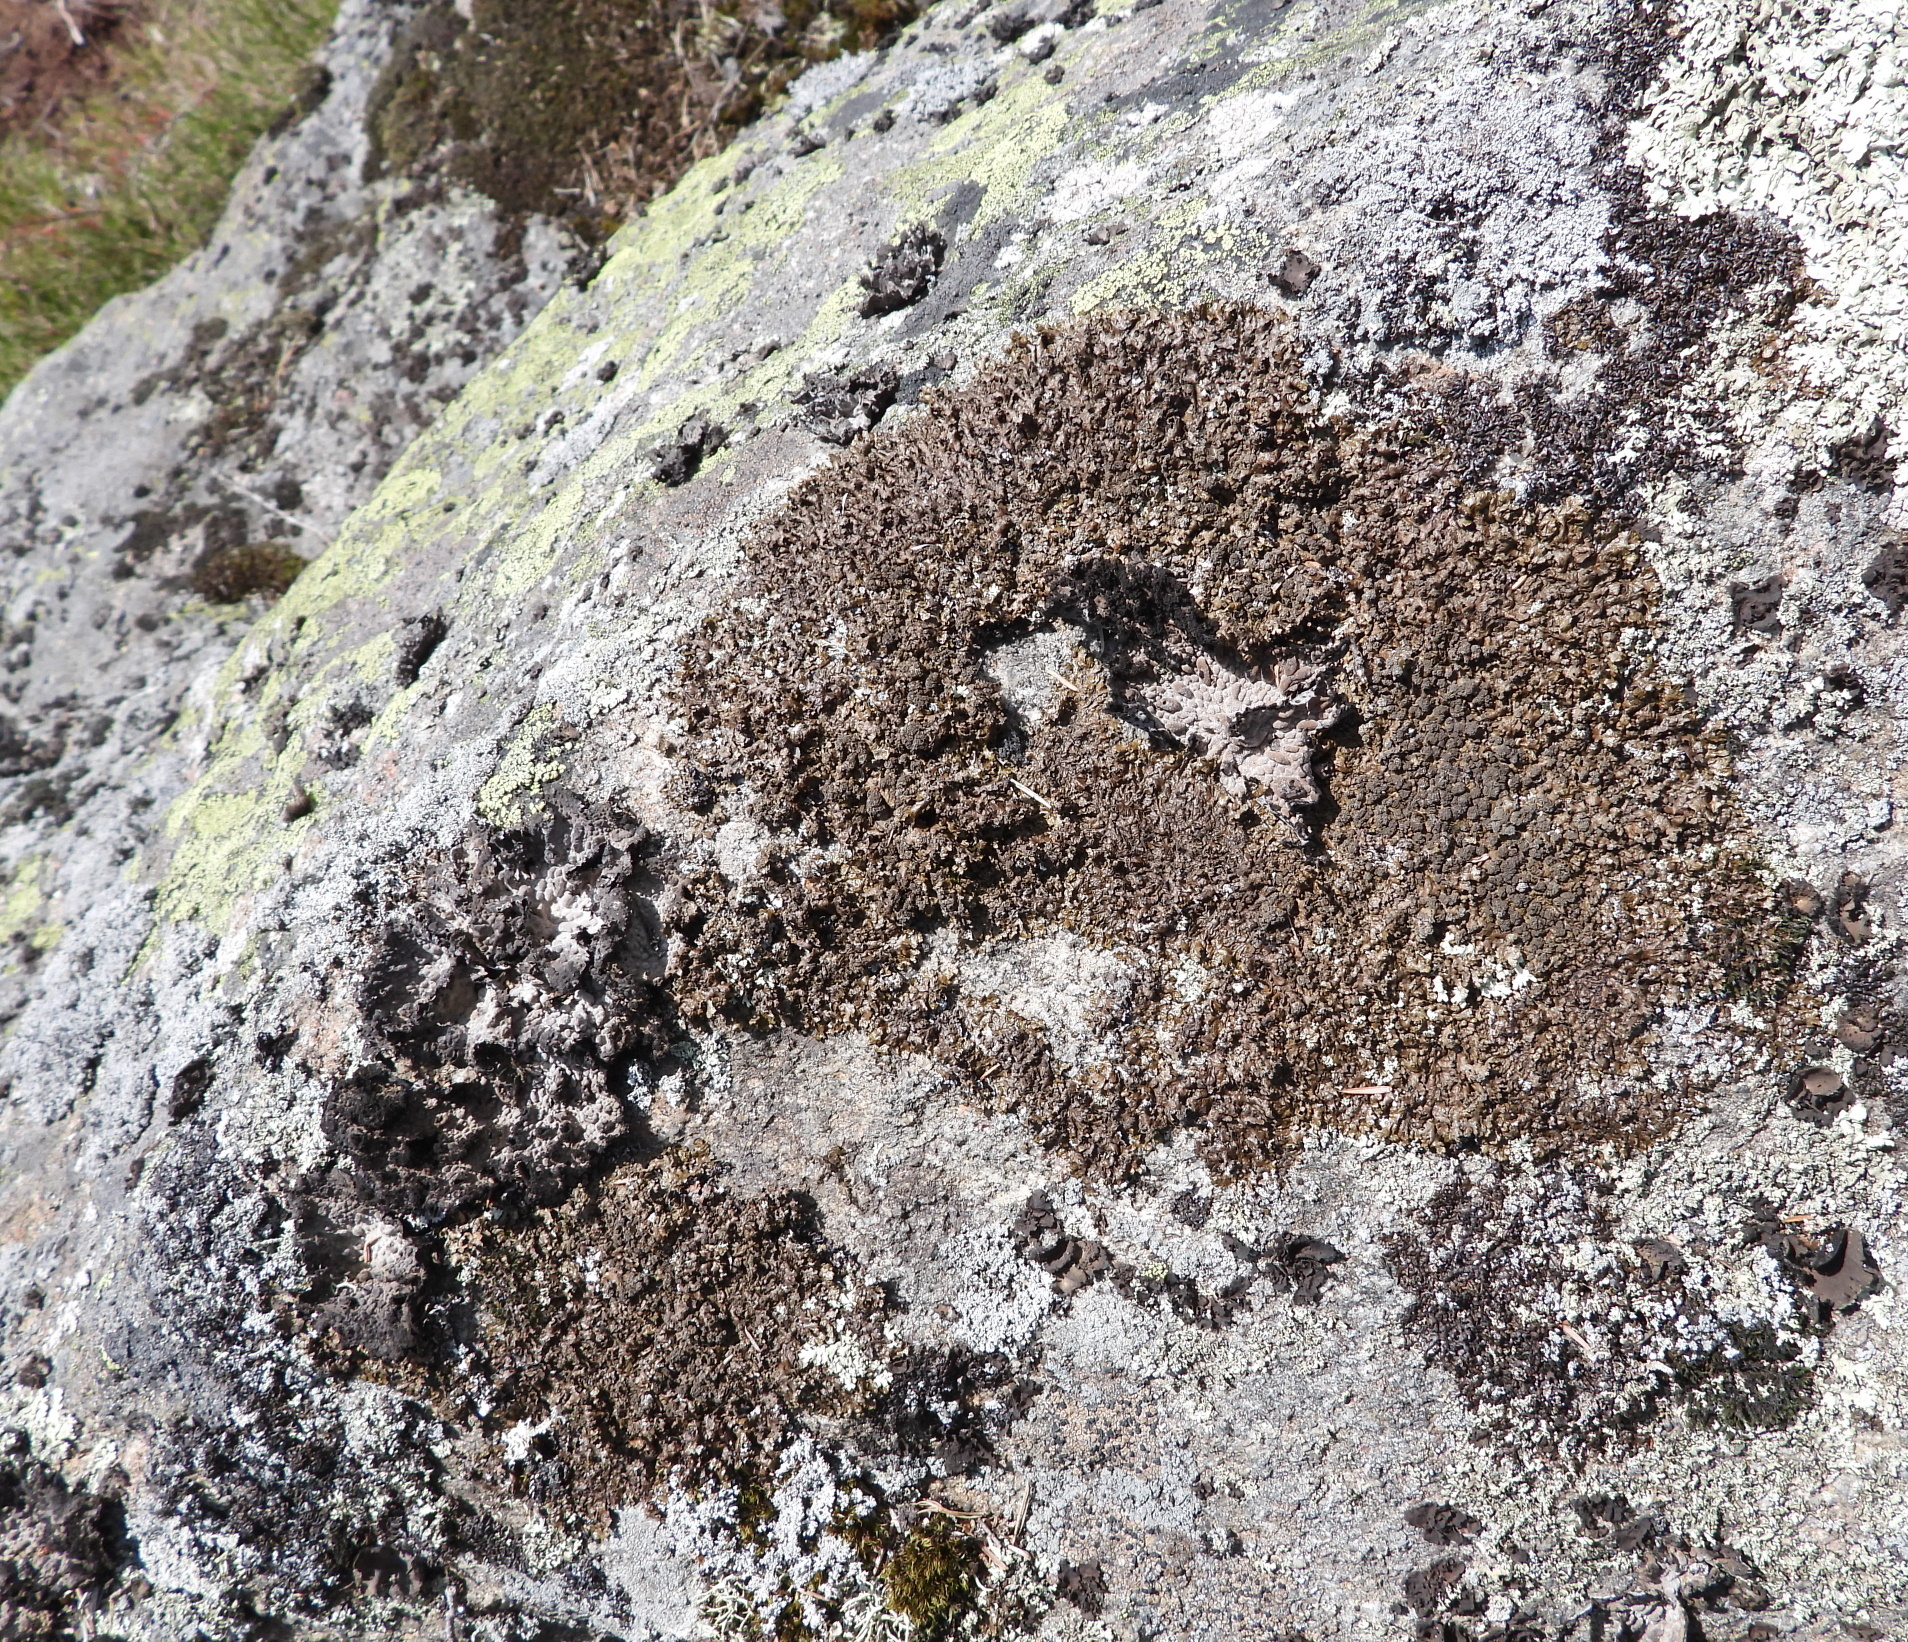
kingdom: Fungi
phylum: Ascomycota
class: Lecanoromycetes
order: Lecanorales
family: Parmeliaceae
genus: Xanthoparmelia
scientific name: Xanthoparmelia loxodes
